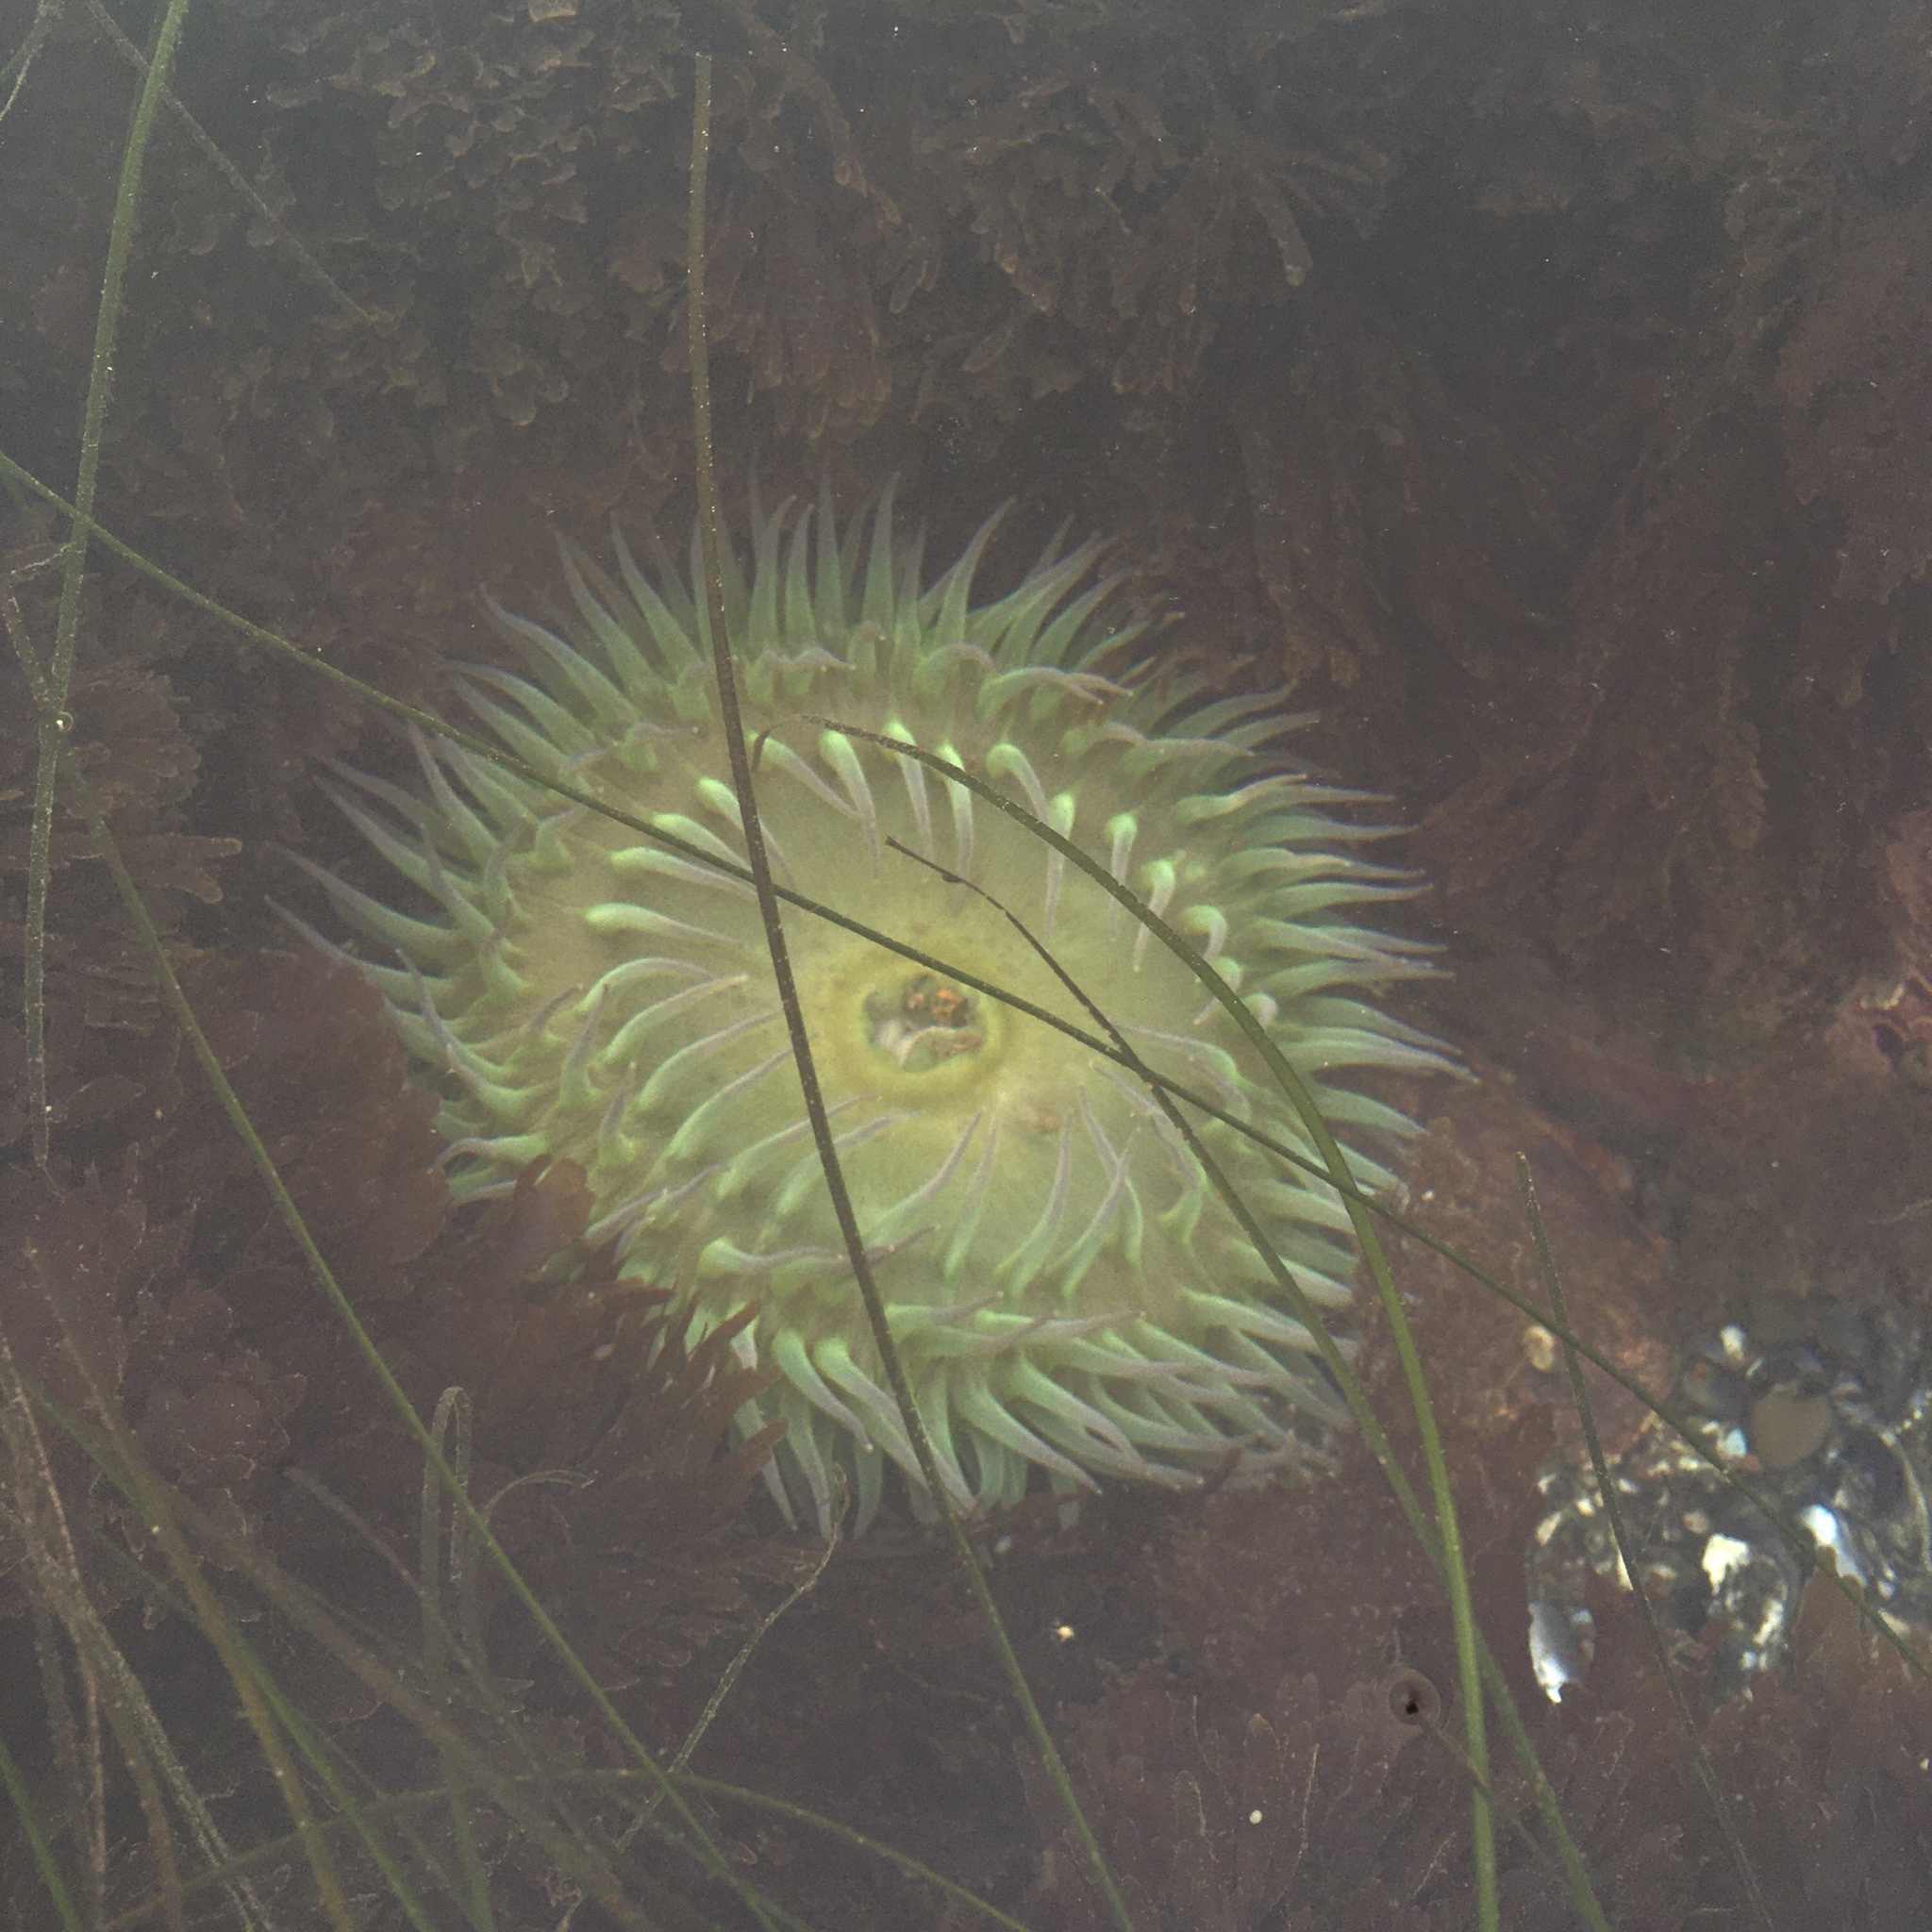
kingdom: Animalia
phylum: Cnidaria
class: Anthozoa
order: Actiniaria
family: Actiniidae
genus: Anthopleura
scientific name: Anthopleura xanthogrammica
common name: Giant green anemone
